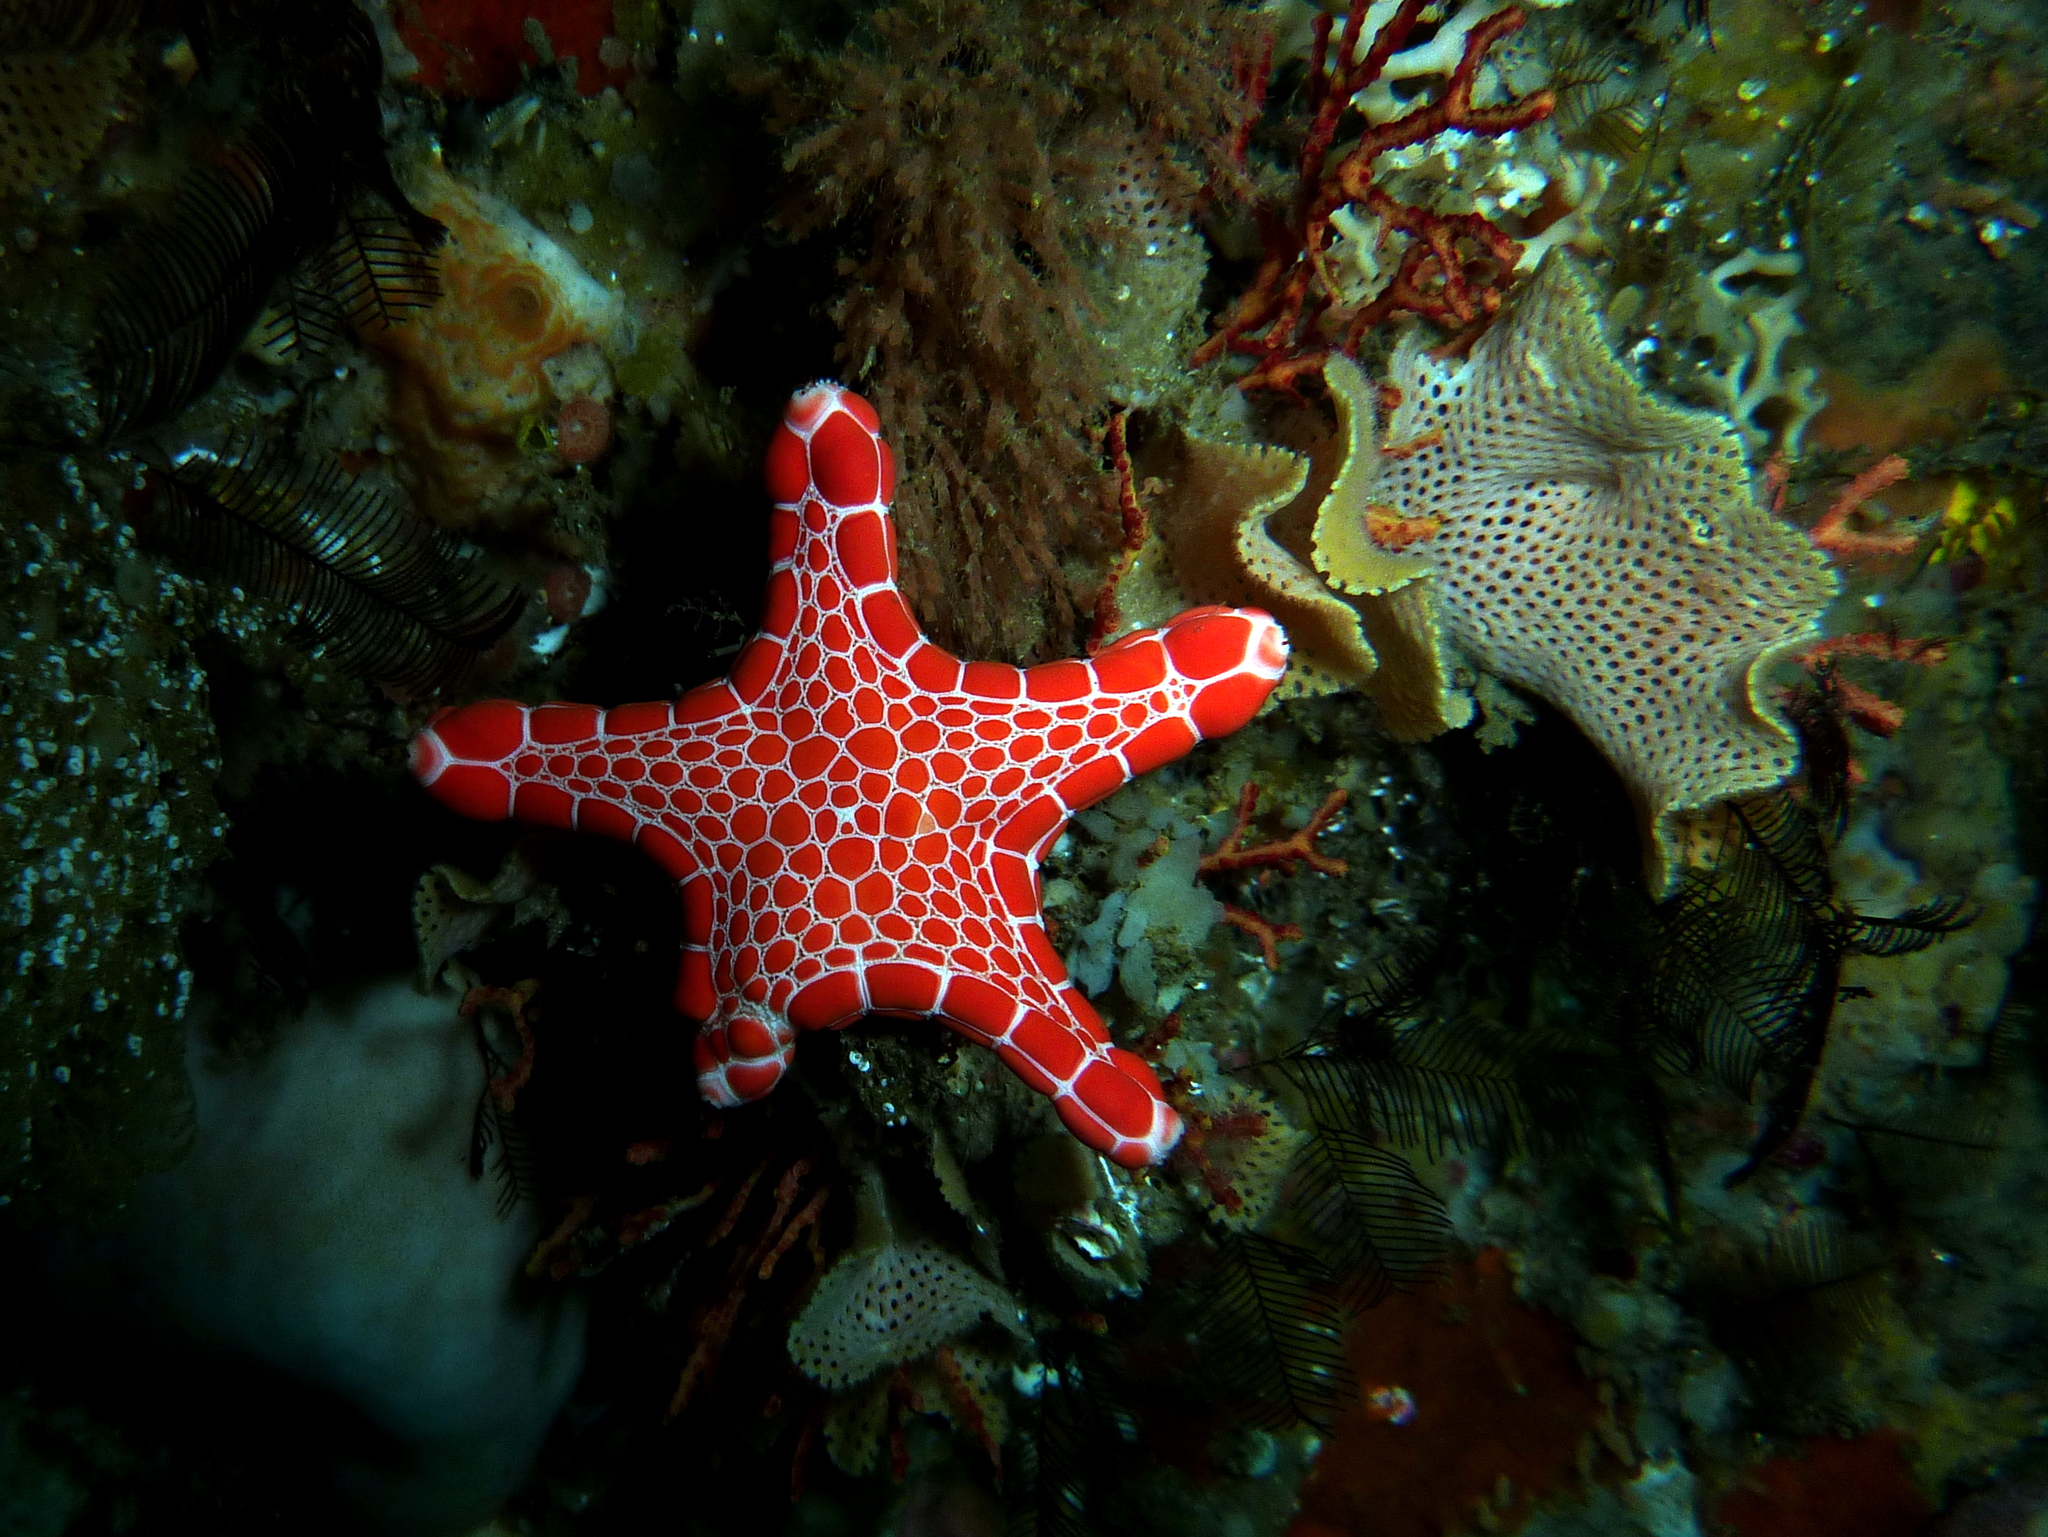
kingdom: Animalia
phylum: Echinodermata
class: Asteroidea
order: Valvatida
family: Goniasteridae
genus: Pentagonaster
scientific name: Pentagonaster duebeni
